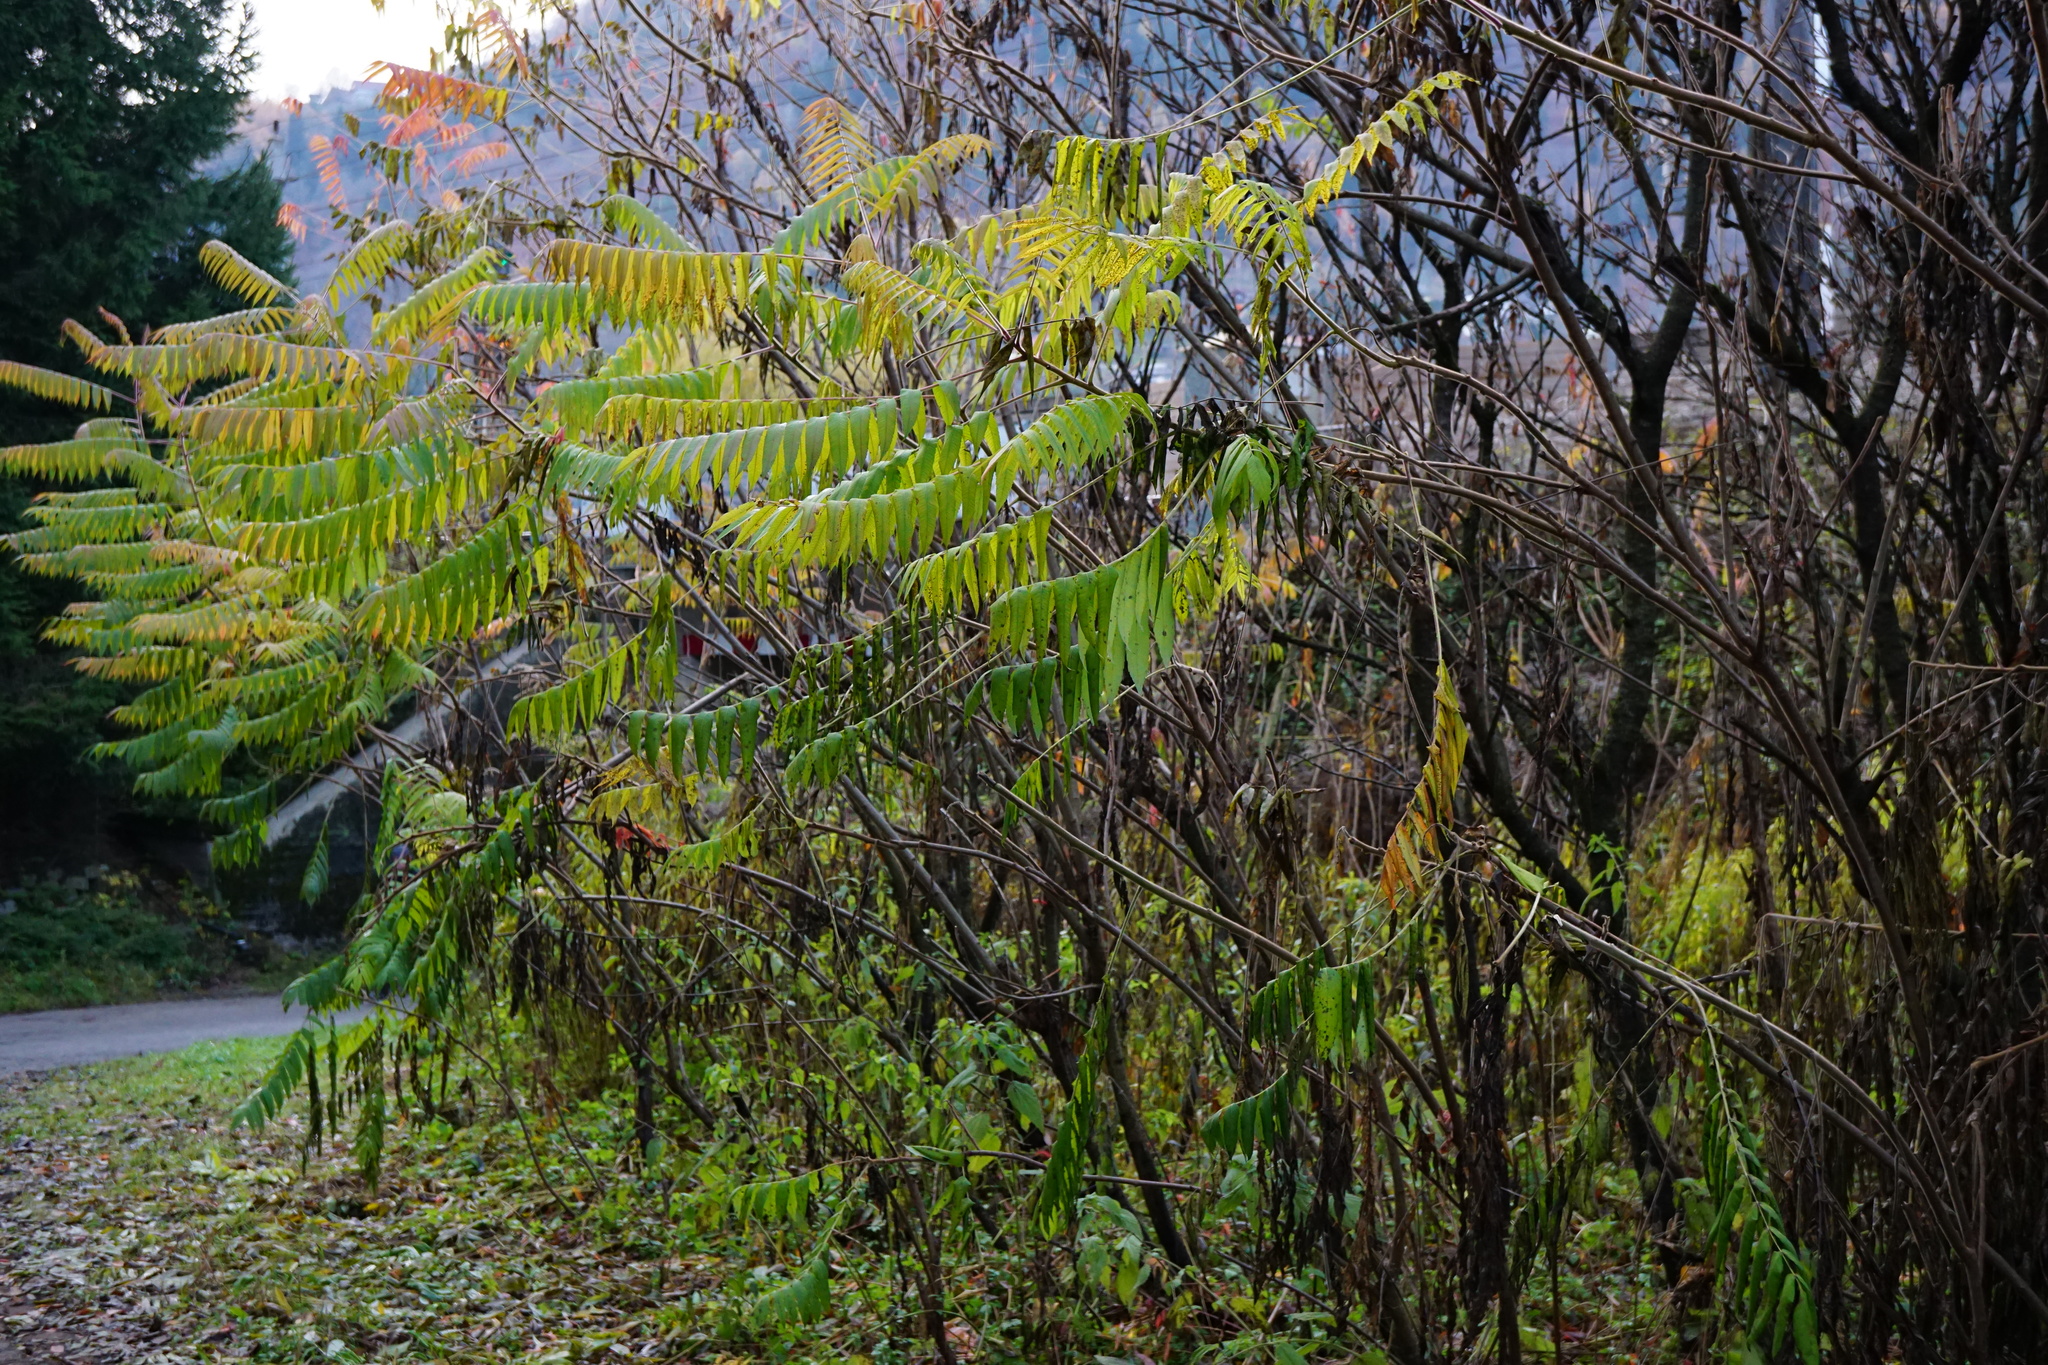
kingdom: Plantae
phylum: Tracheophyta
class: Magnoliopsida
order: Sapindales
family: Anacardiaceae
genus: Rhus
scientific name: Rhus typhina
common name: Staghorn sumac
